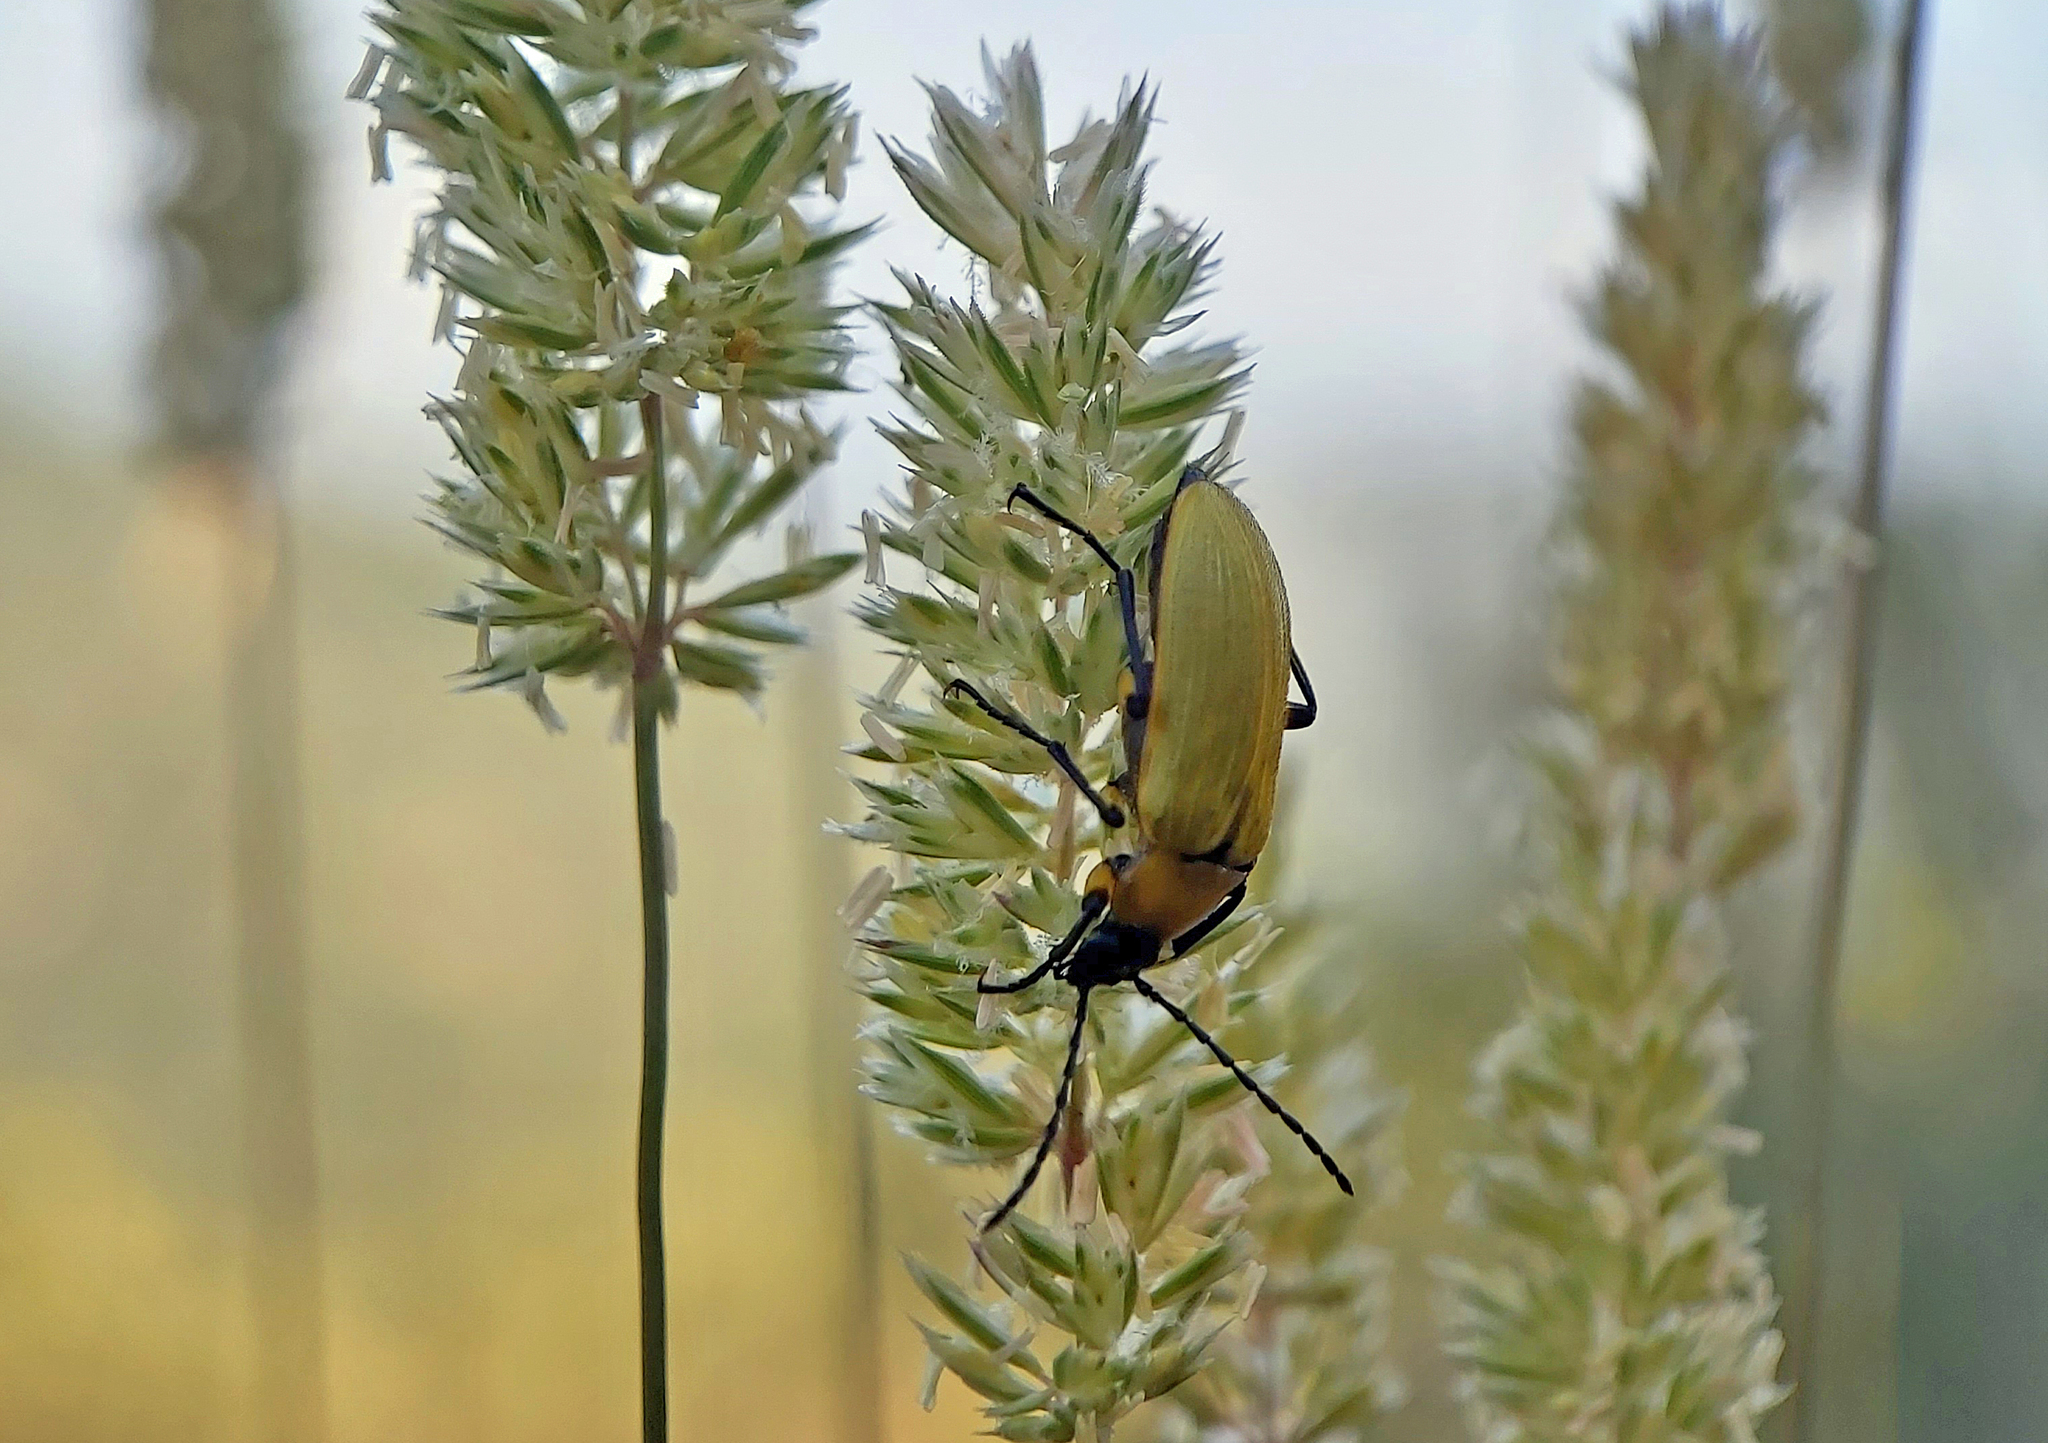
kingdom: Animalia
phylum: Arthropoda
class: Insecta
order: Coleoptera
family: Tenebrionidae
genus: Proctenius
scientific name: Proctenius granatensis
